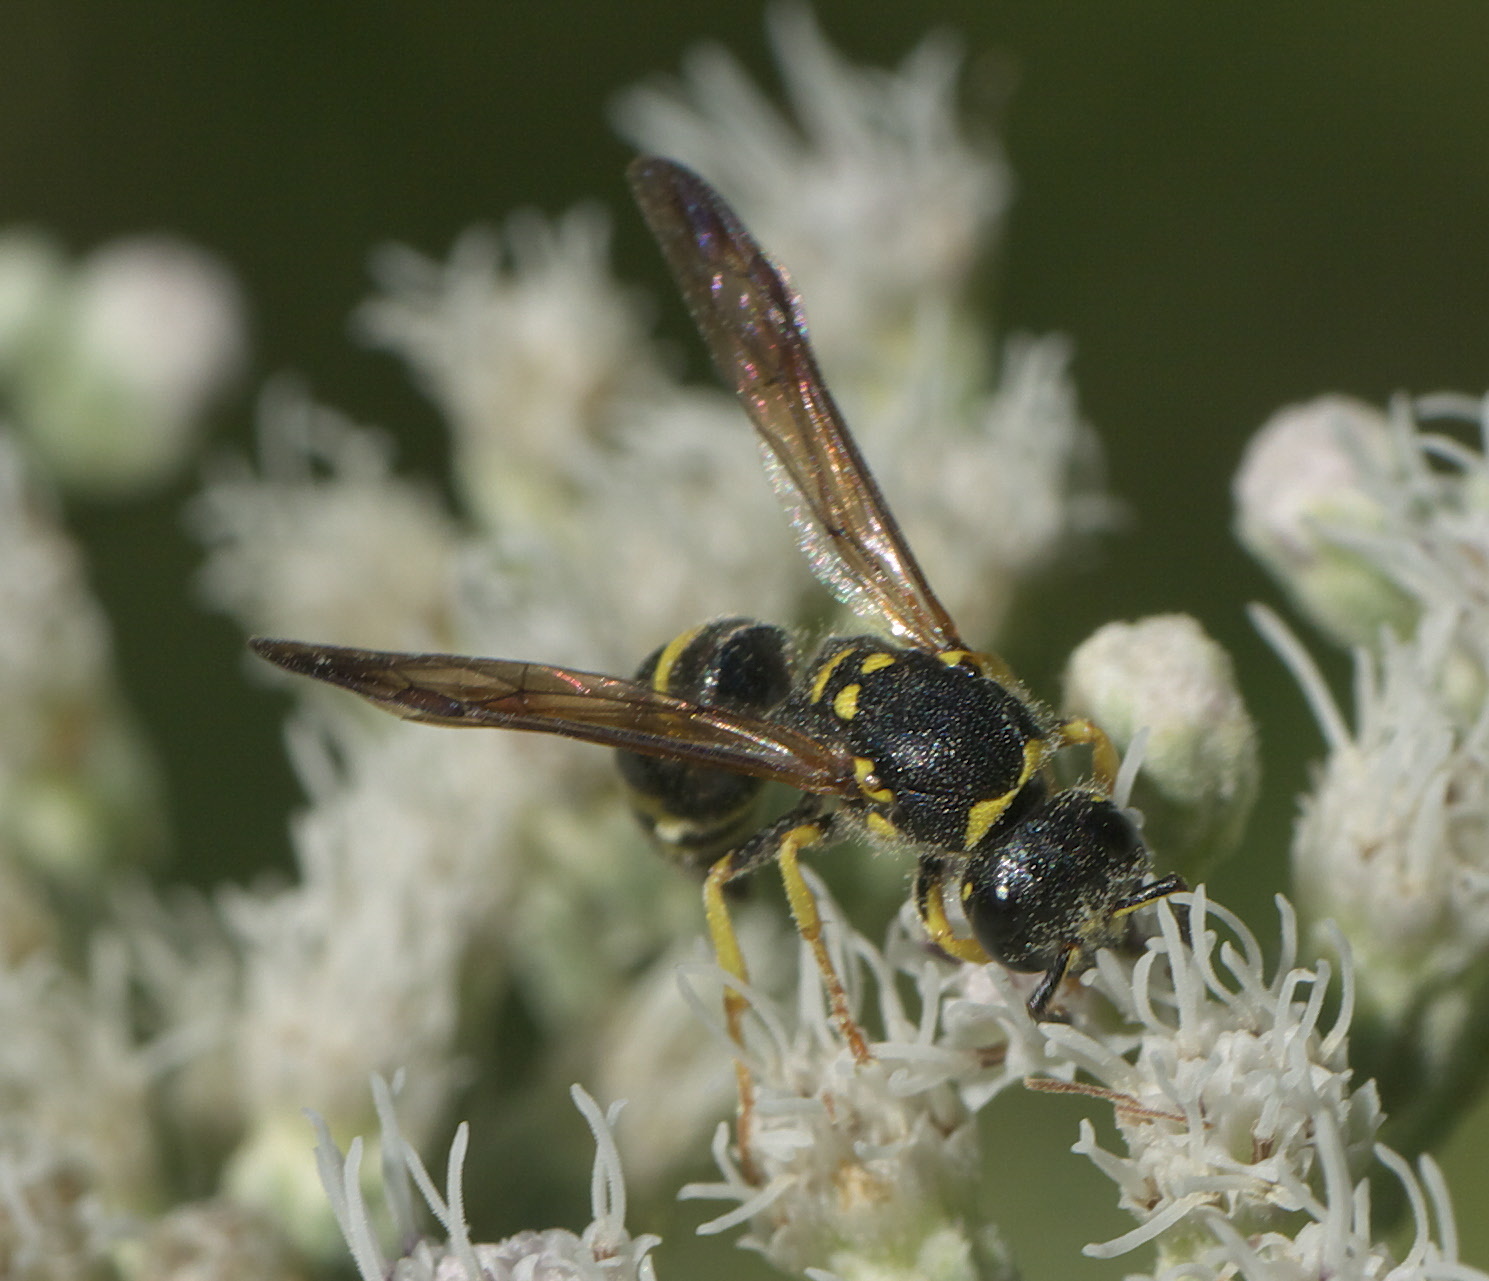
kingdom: Animalia
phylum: Arthropoda
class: Insecta
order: Hymenoptera
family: Vespidae
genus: Ancistrocerus
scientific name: Ancistrocerus adiabatus
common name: Bramble mason wasp
